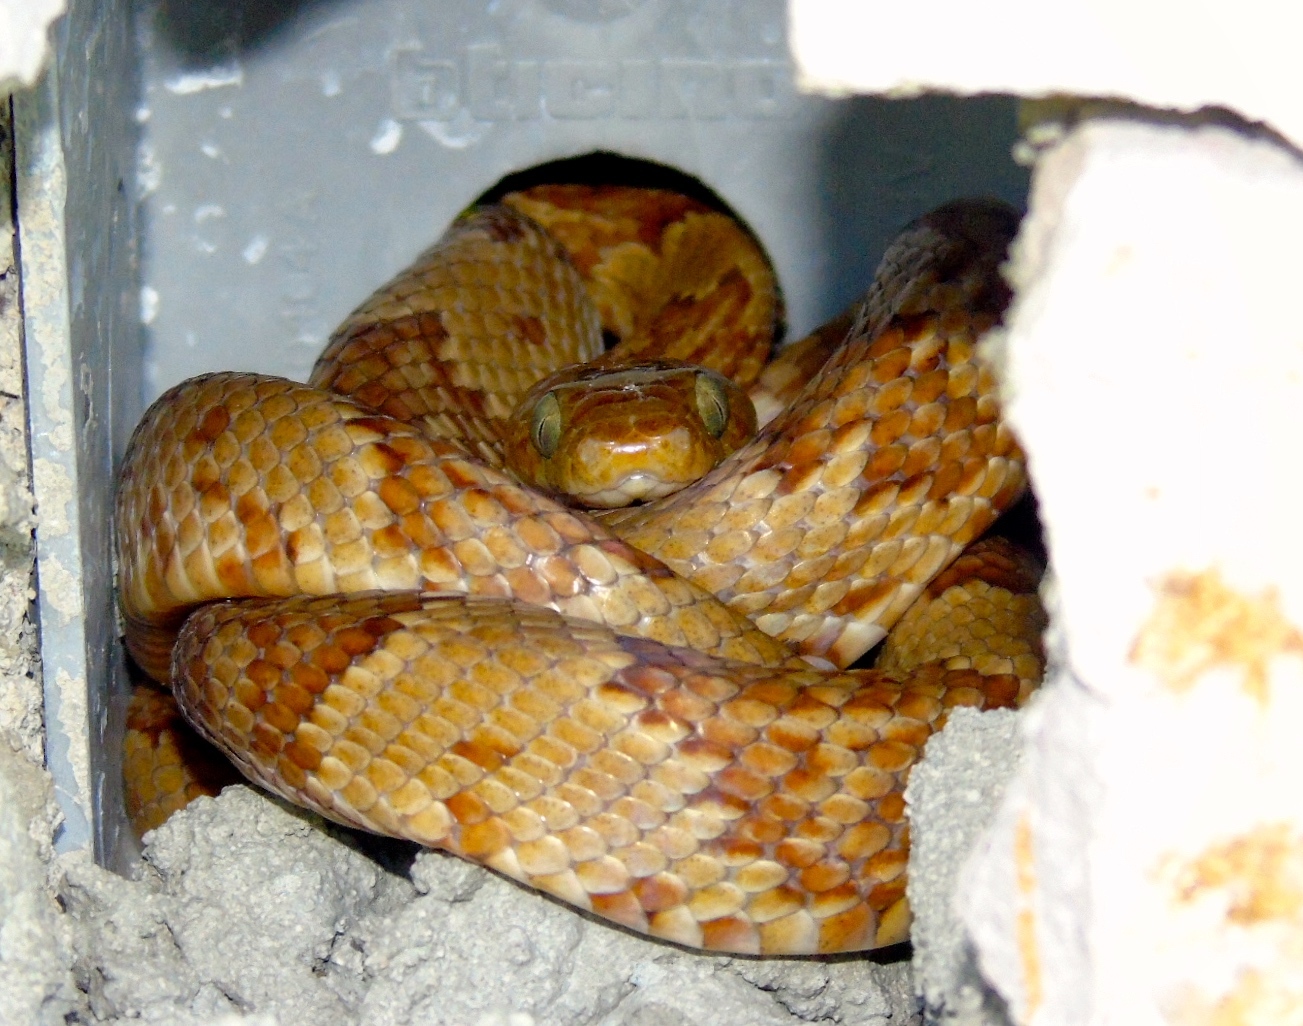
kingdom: Animalia
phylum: Chordata
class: Squamata
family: Colubridae
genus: Trimorphodon
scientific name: Trimorphodon paucimaculatus
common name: Sinaloan lyresnake
